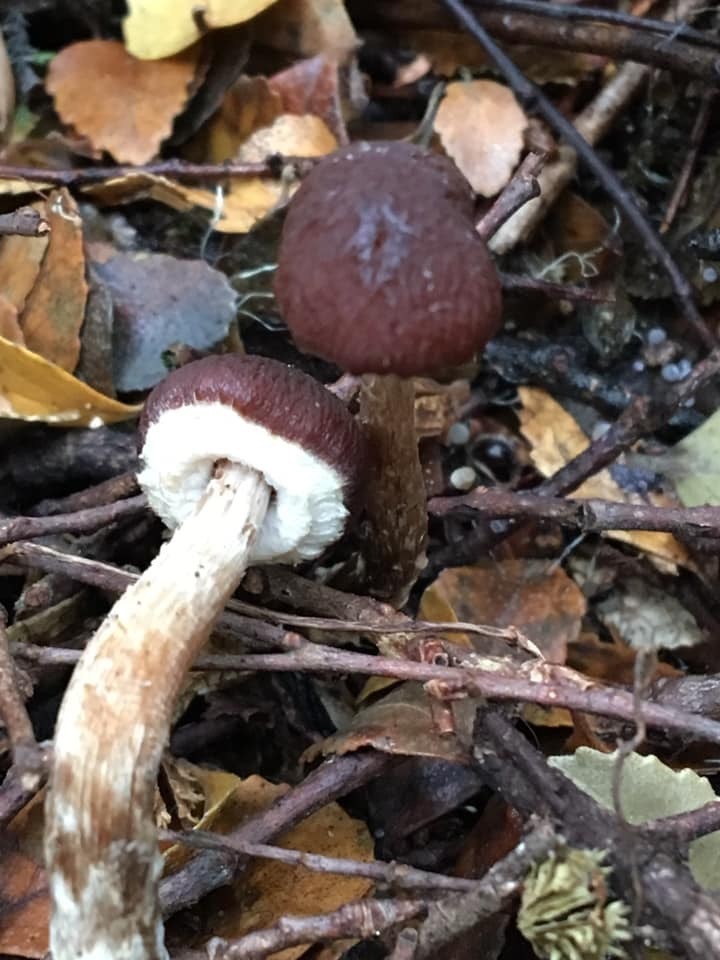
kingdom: Fungi
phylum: Basidiomycota
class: Agaricomycetes
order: Agaricales
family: Bolbitiaceae
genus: Setchelliogaster
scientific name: Setchelliogaster tenuipes
